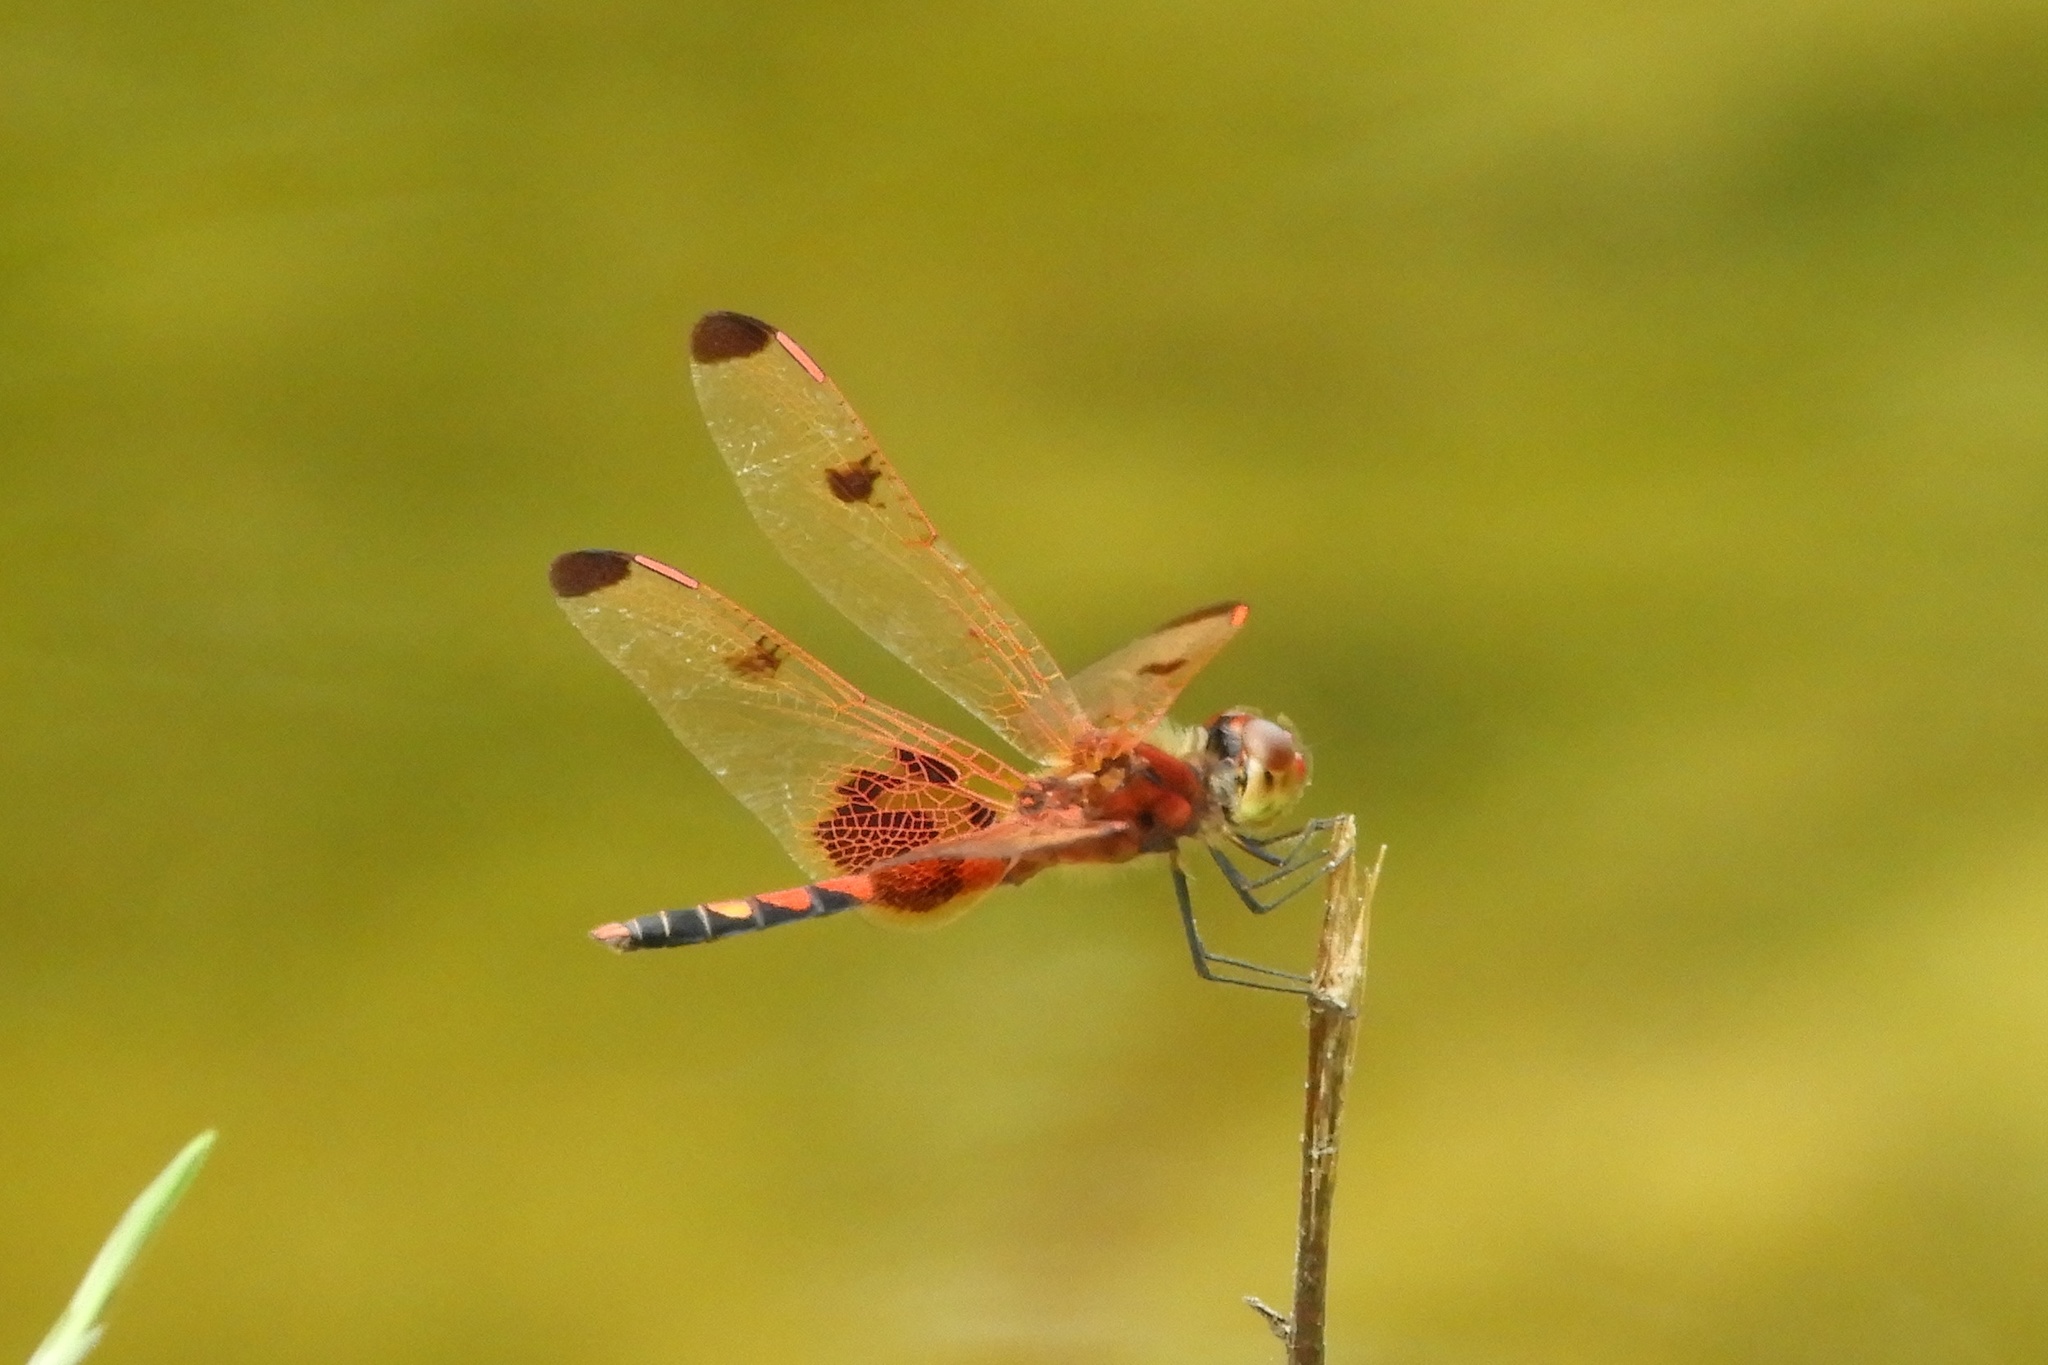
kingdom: Animalia
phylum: Arthropoda
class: Insecta
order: Odonata
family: Libellulidae
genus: Celithemis
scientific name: Celithemis elisa
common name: Calico pennant
